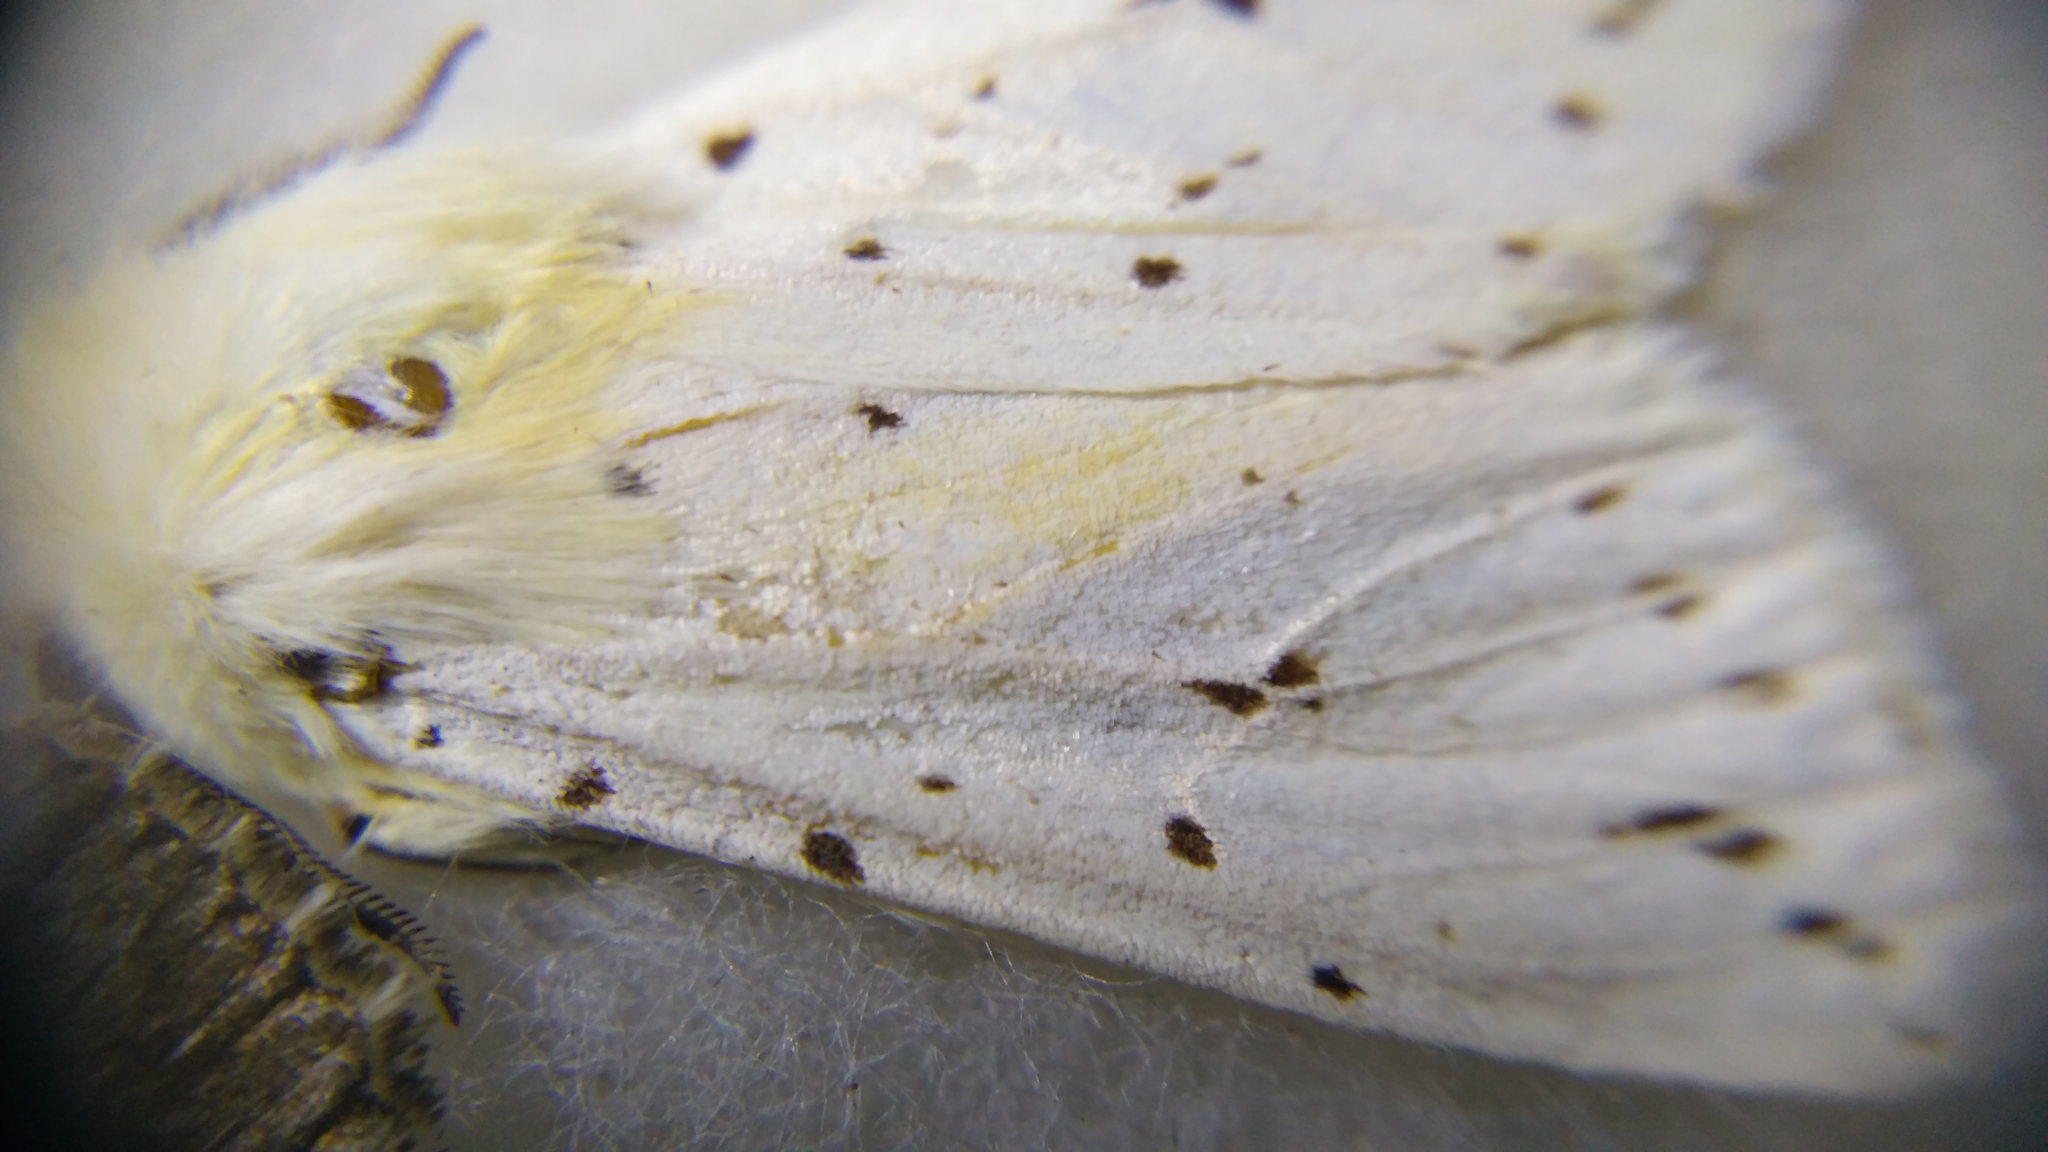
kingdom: Animalia
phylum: Arthropoda
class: Insecta
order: Lepidoptera
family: Erebidae
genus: Spilosoma
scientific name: Spilosoma lubricipeda
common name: White ermine
